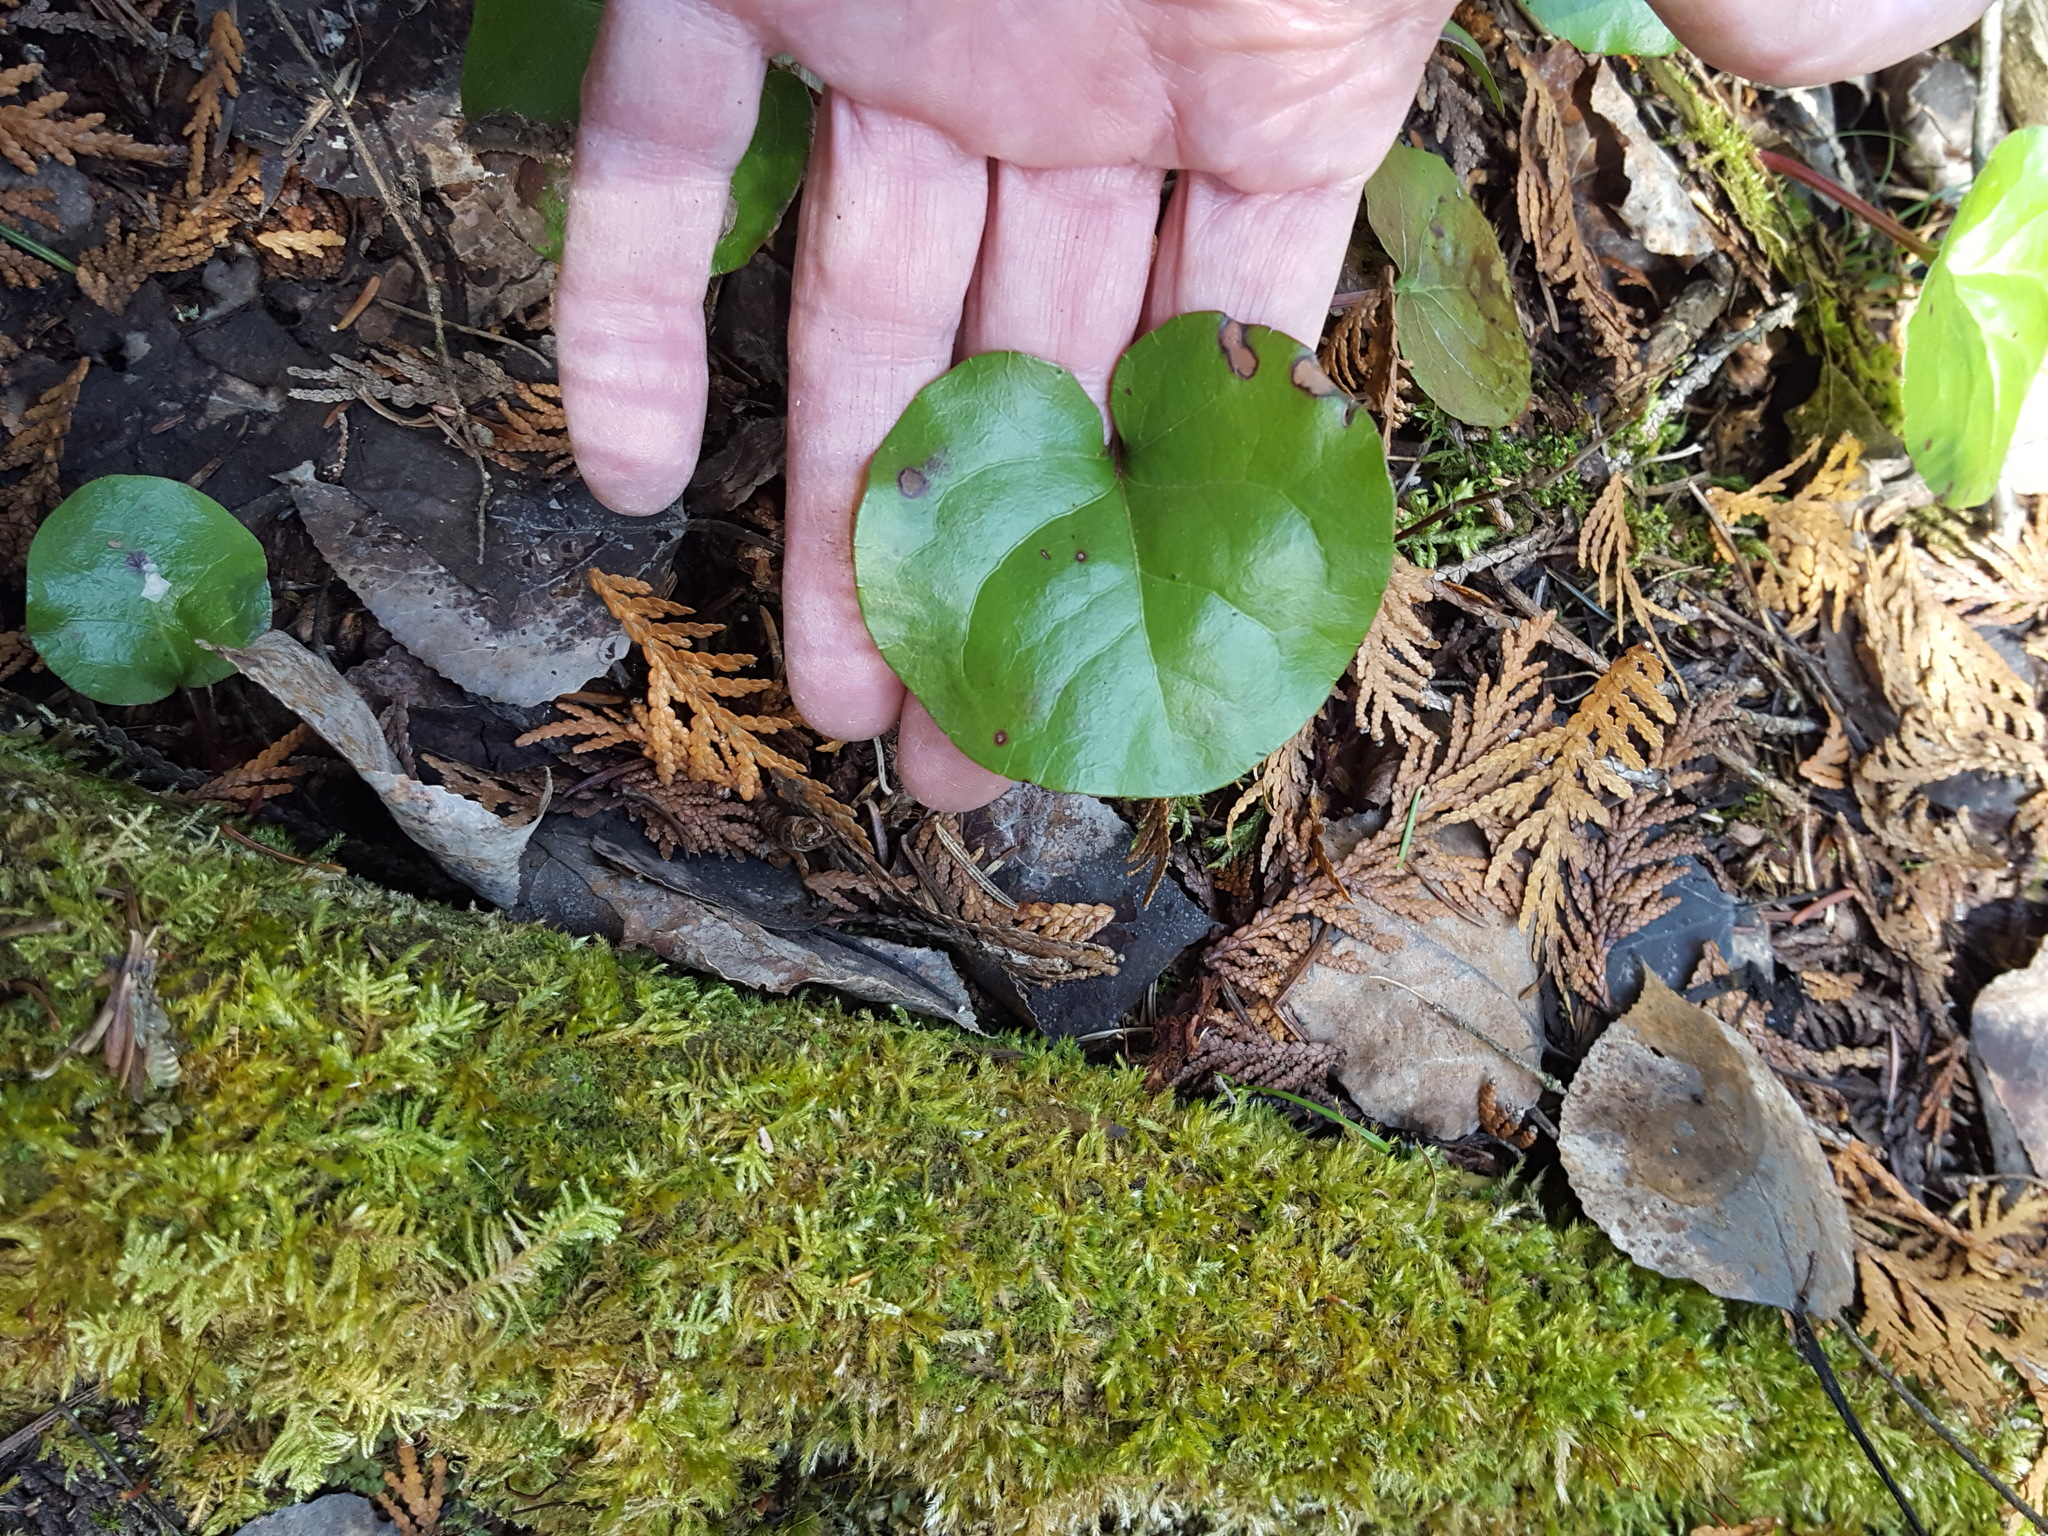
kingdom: Plantae
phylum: Tracheophyta
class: Magnoliopsida
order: Ericales
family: Ericaceae
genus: Pyrola
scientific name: Pyrola asarifolia
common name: Bog wintergreen
